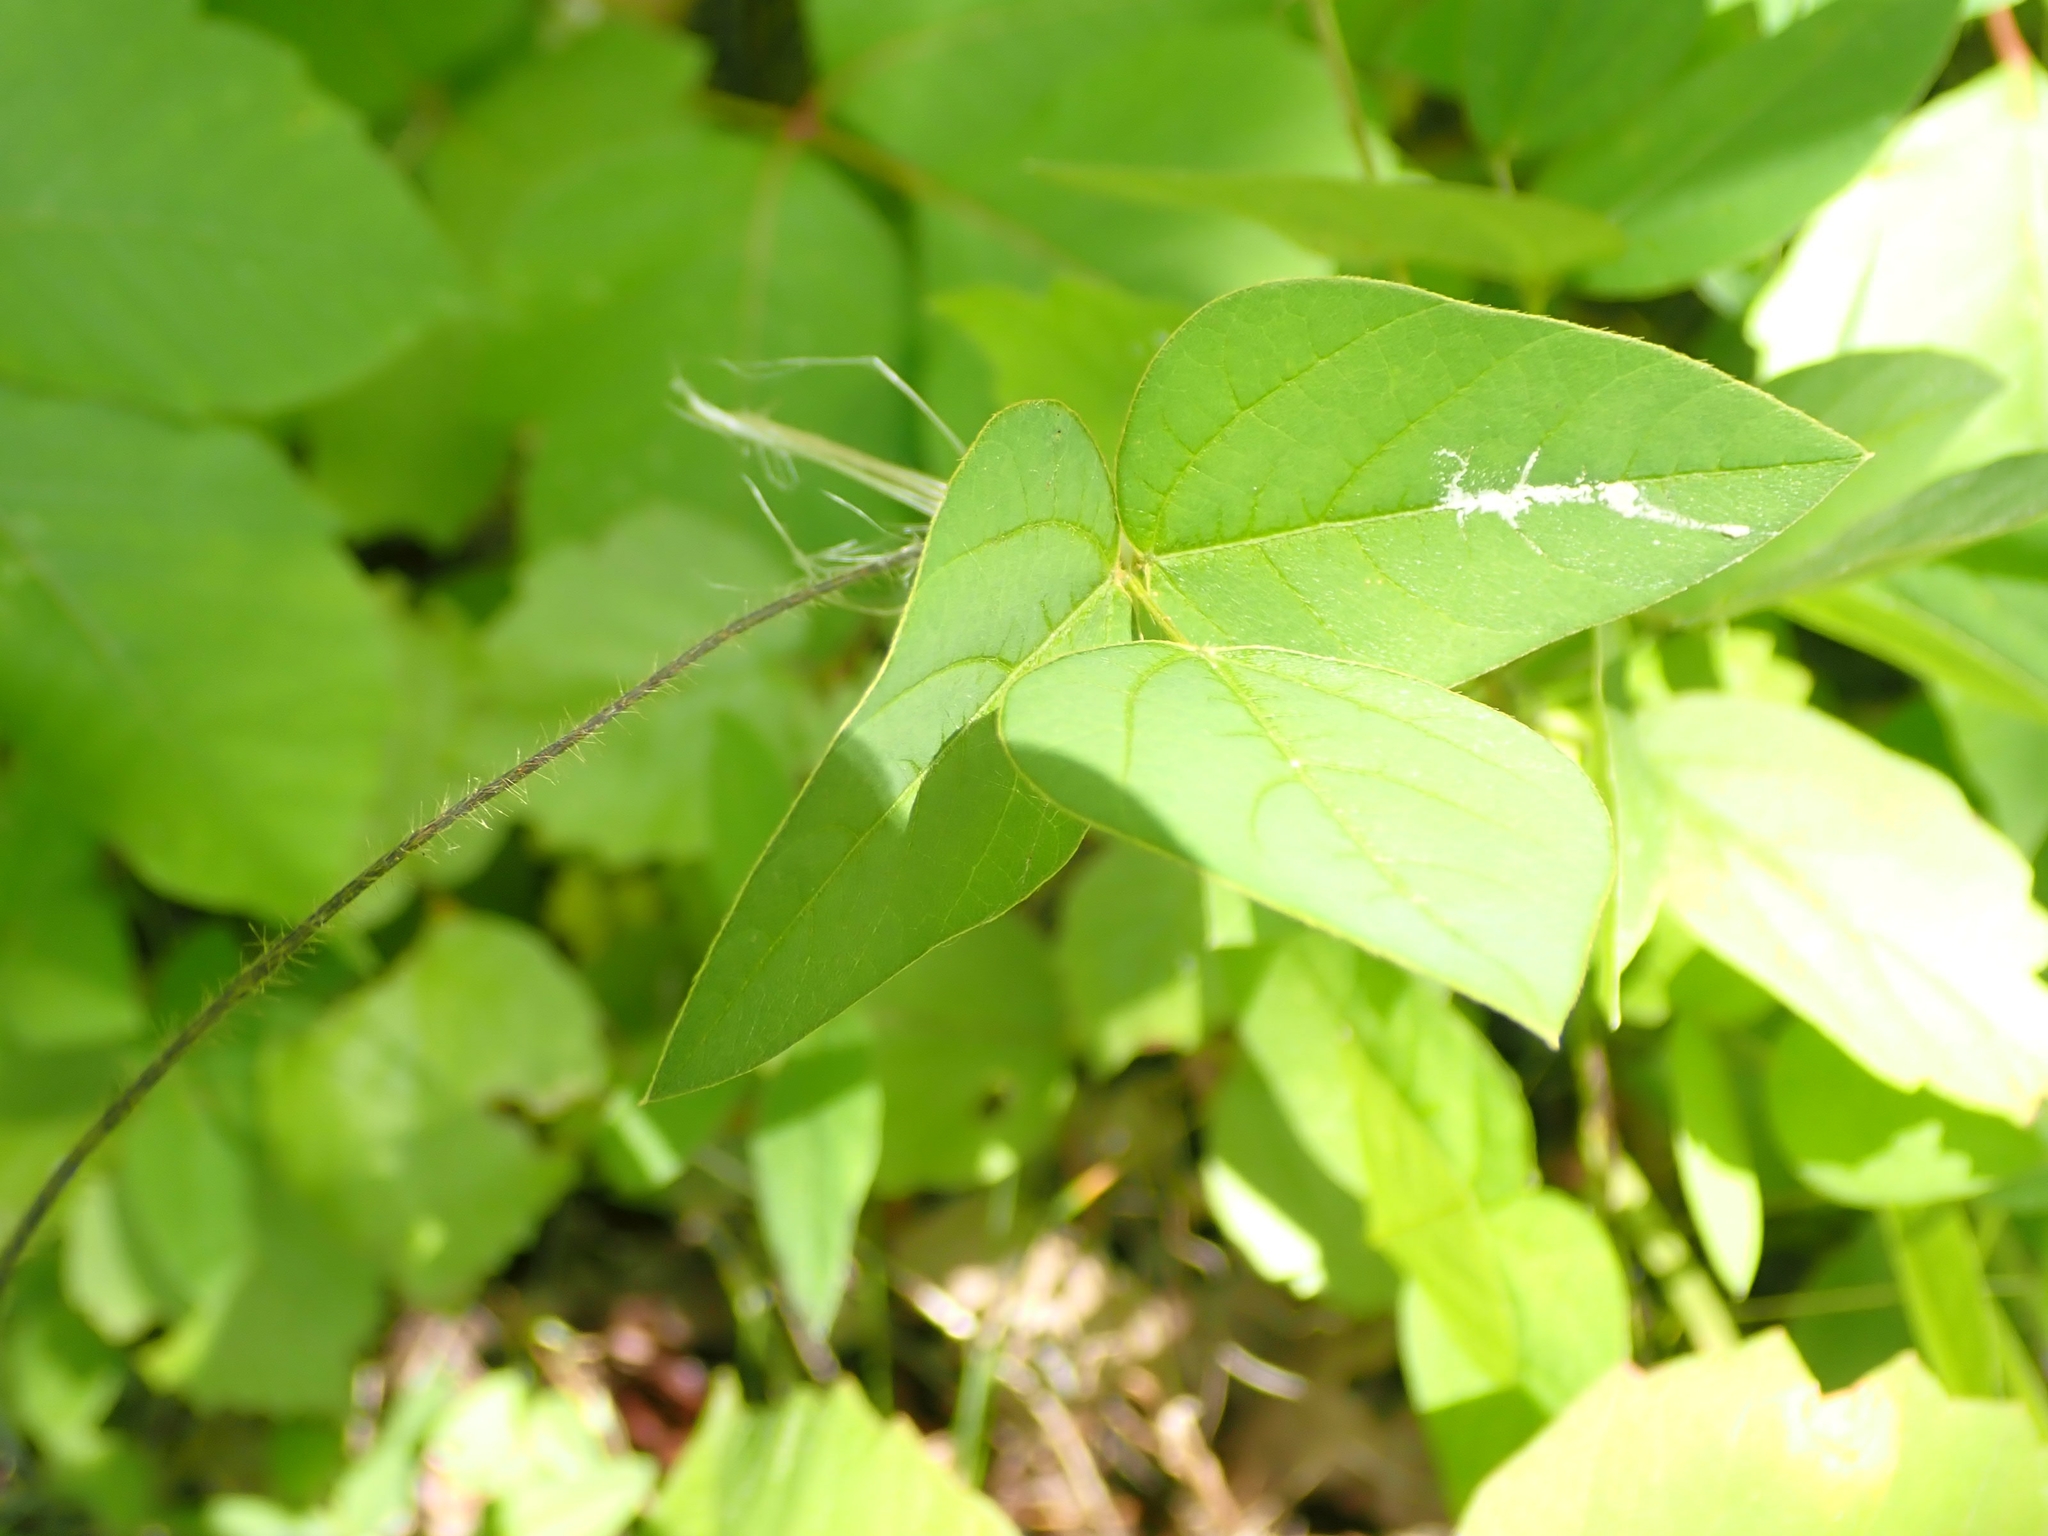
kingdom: Plantae
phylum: Tracheophyta
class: Magnoliopsida
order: Fabales
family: Fabaceae
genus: Amphicarpaea
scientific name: Amphicarpaea bracteata
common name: American hog peanut
